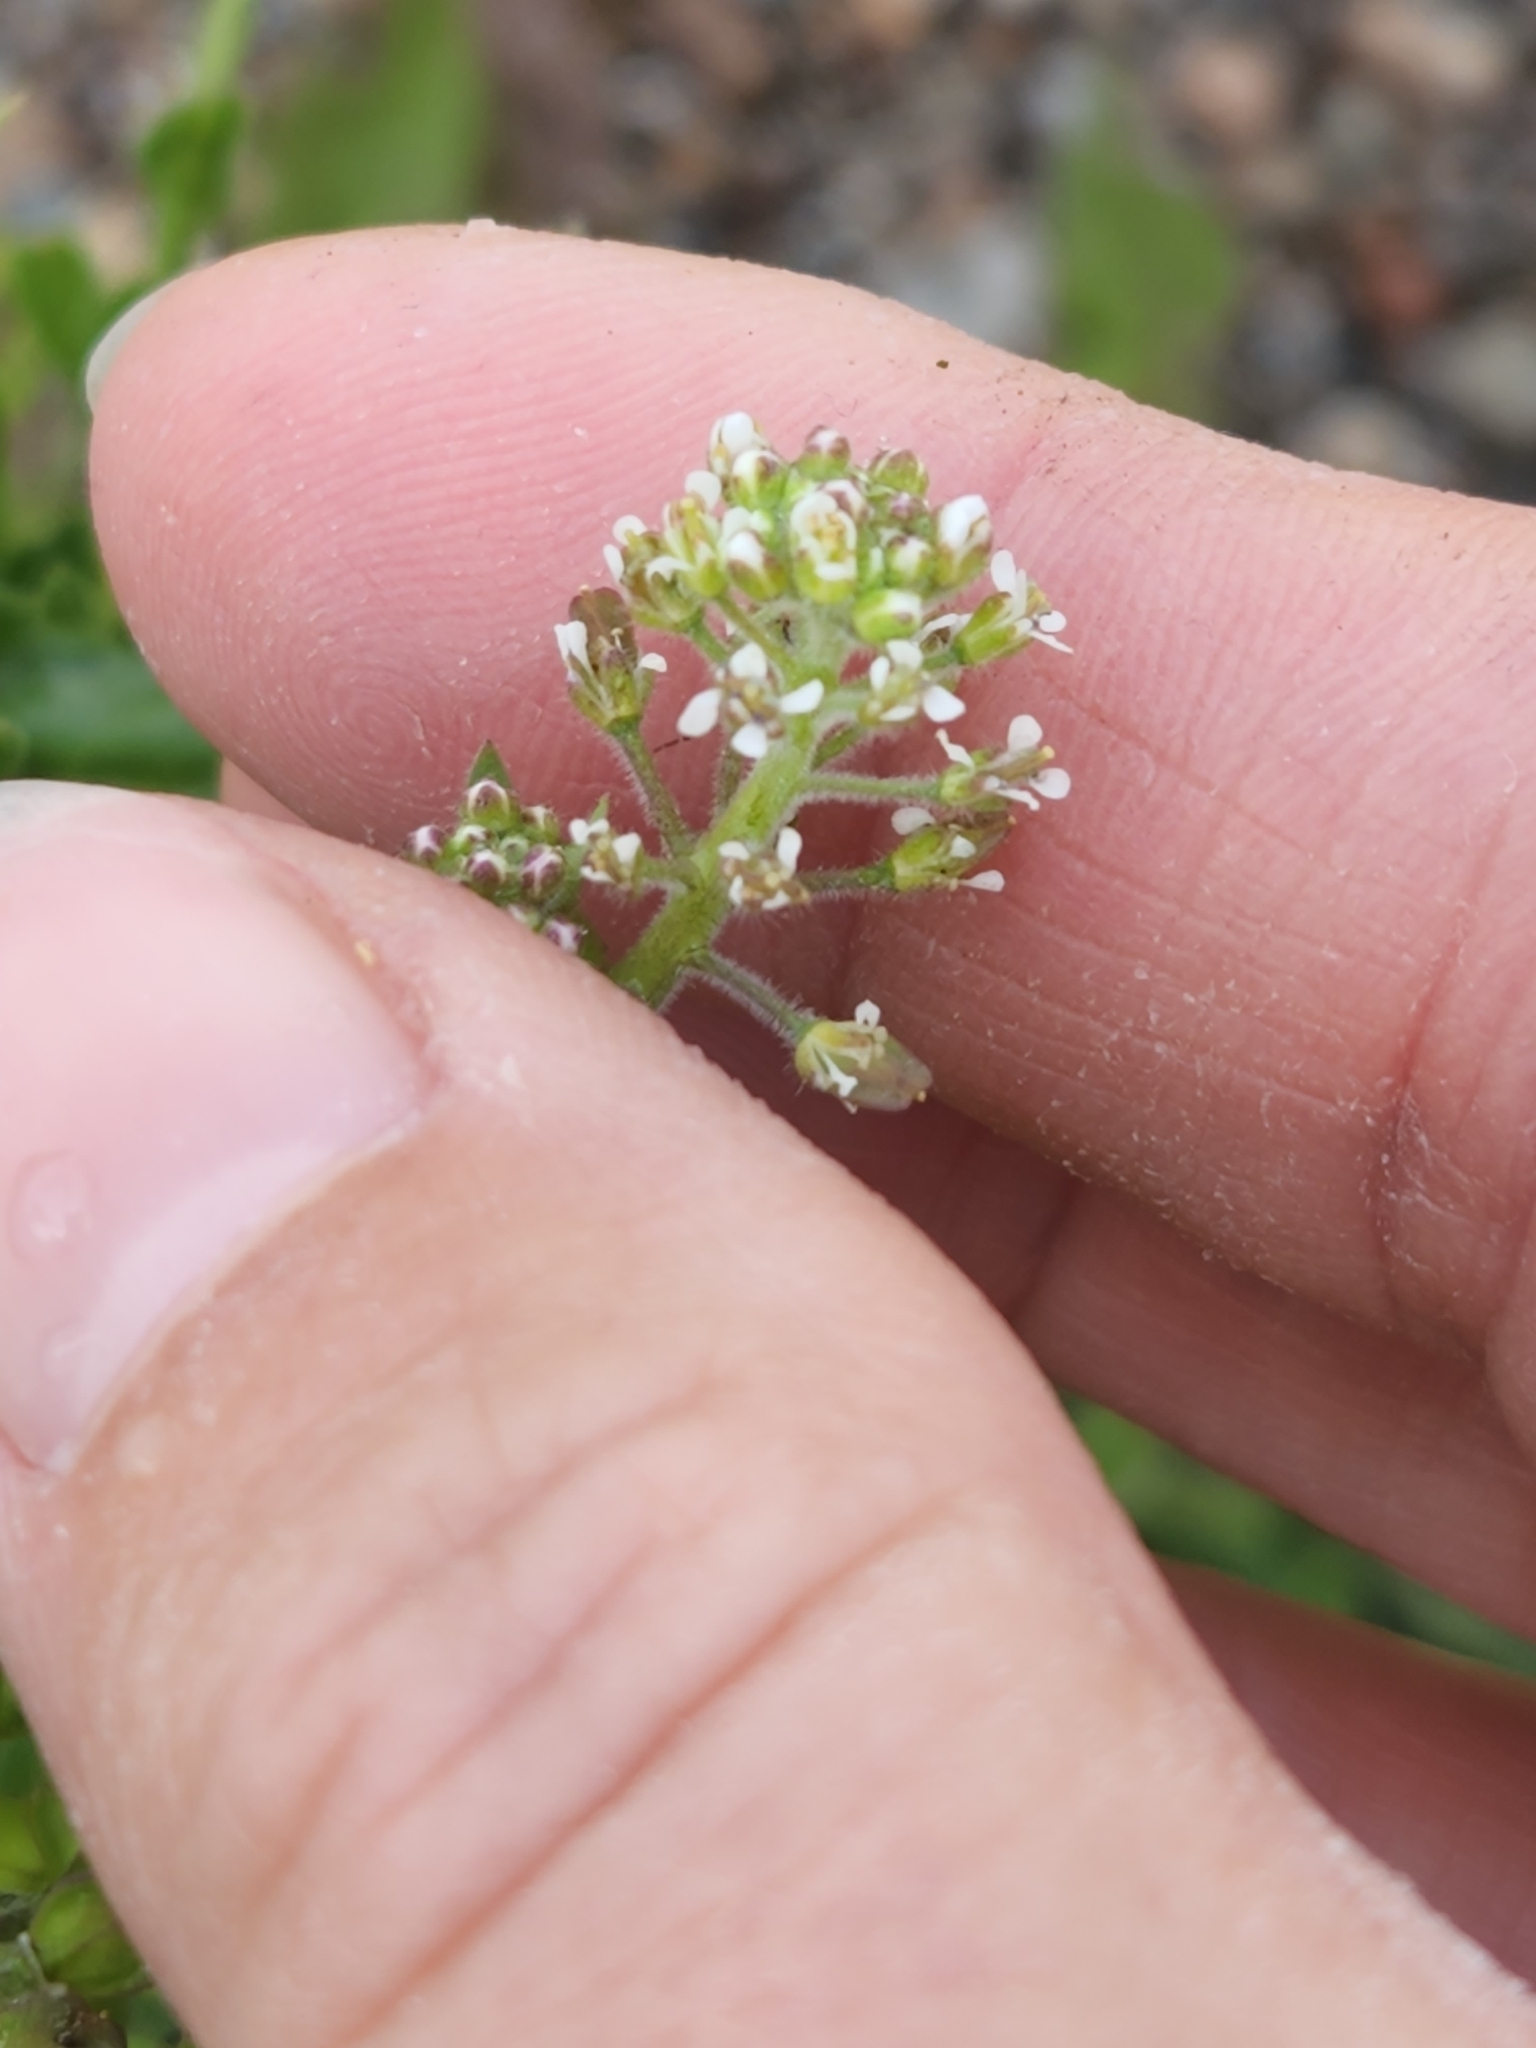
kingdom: Plantae
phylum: Tracheophyta
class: Magnoliopsida
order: Brassicales
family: Brassicaceae
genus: Lepidium
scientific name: Lepidium campestre
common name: Field pepperwort
